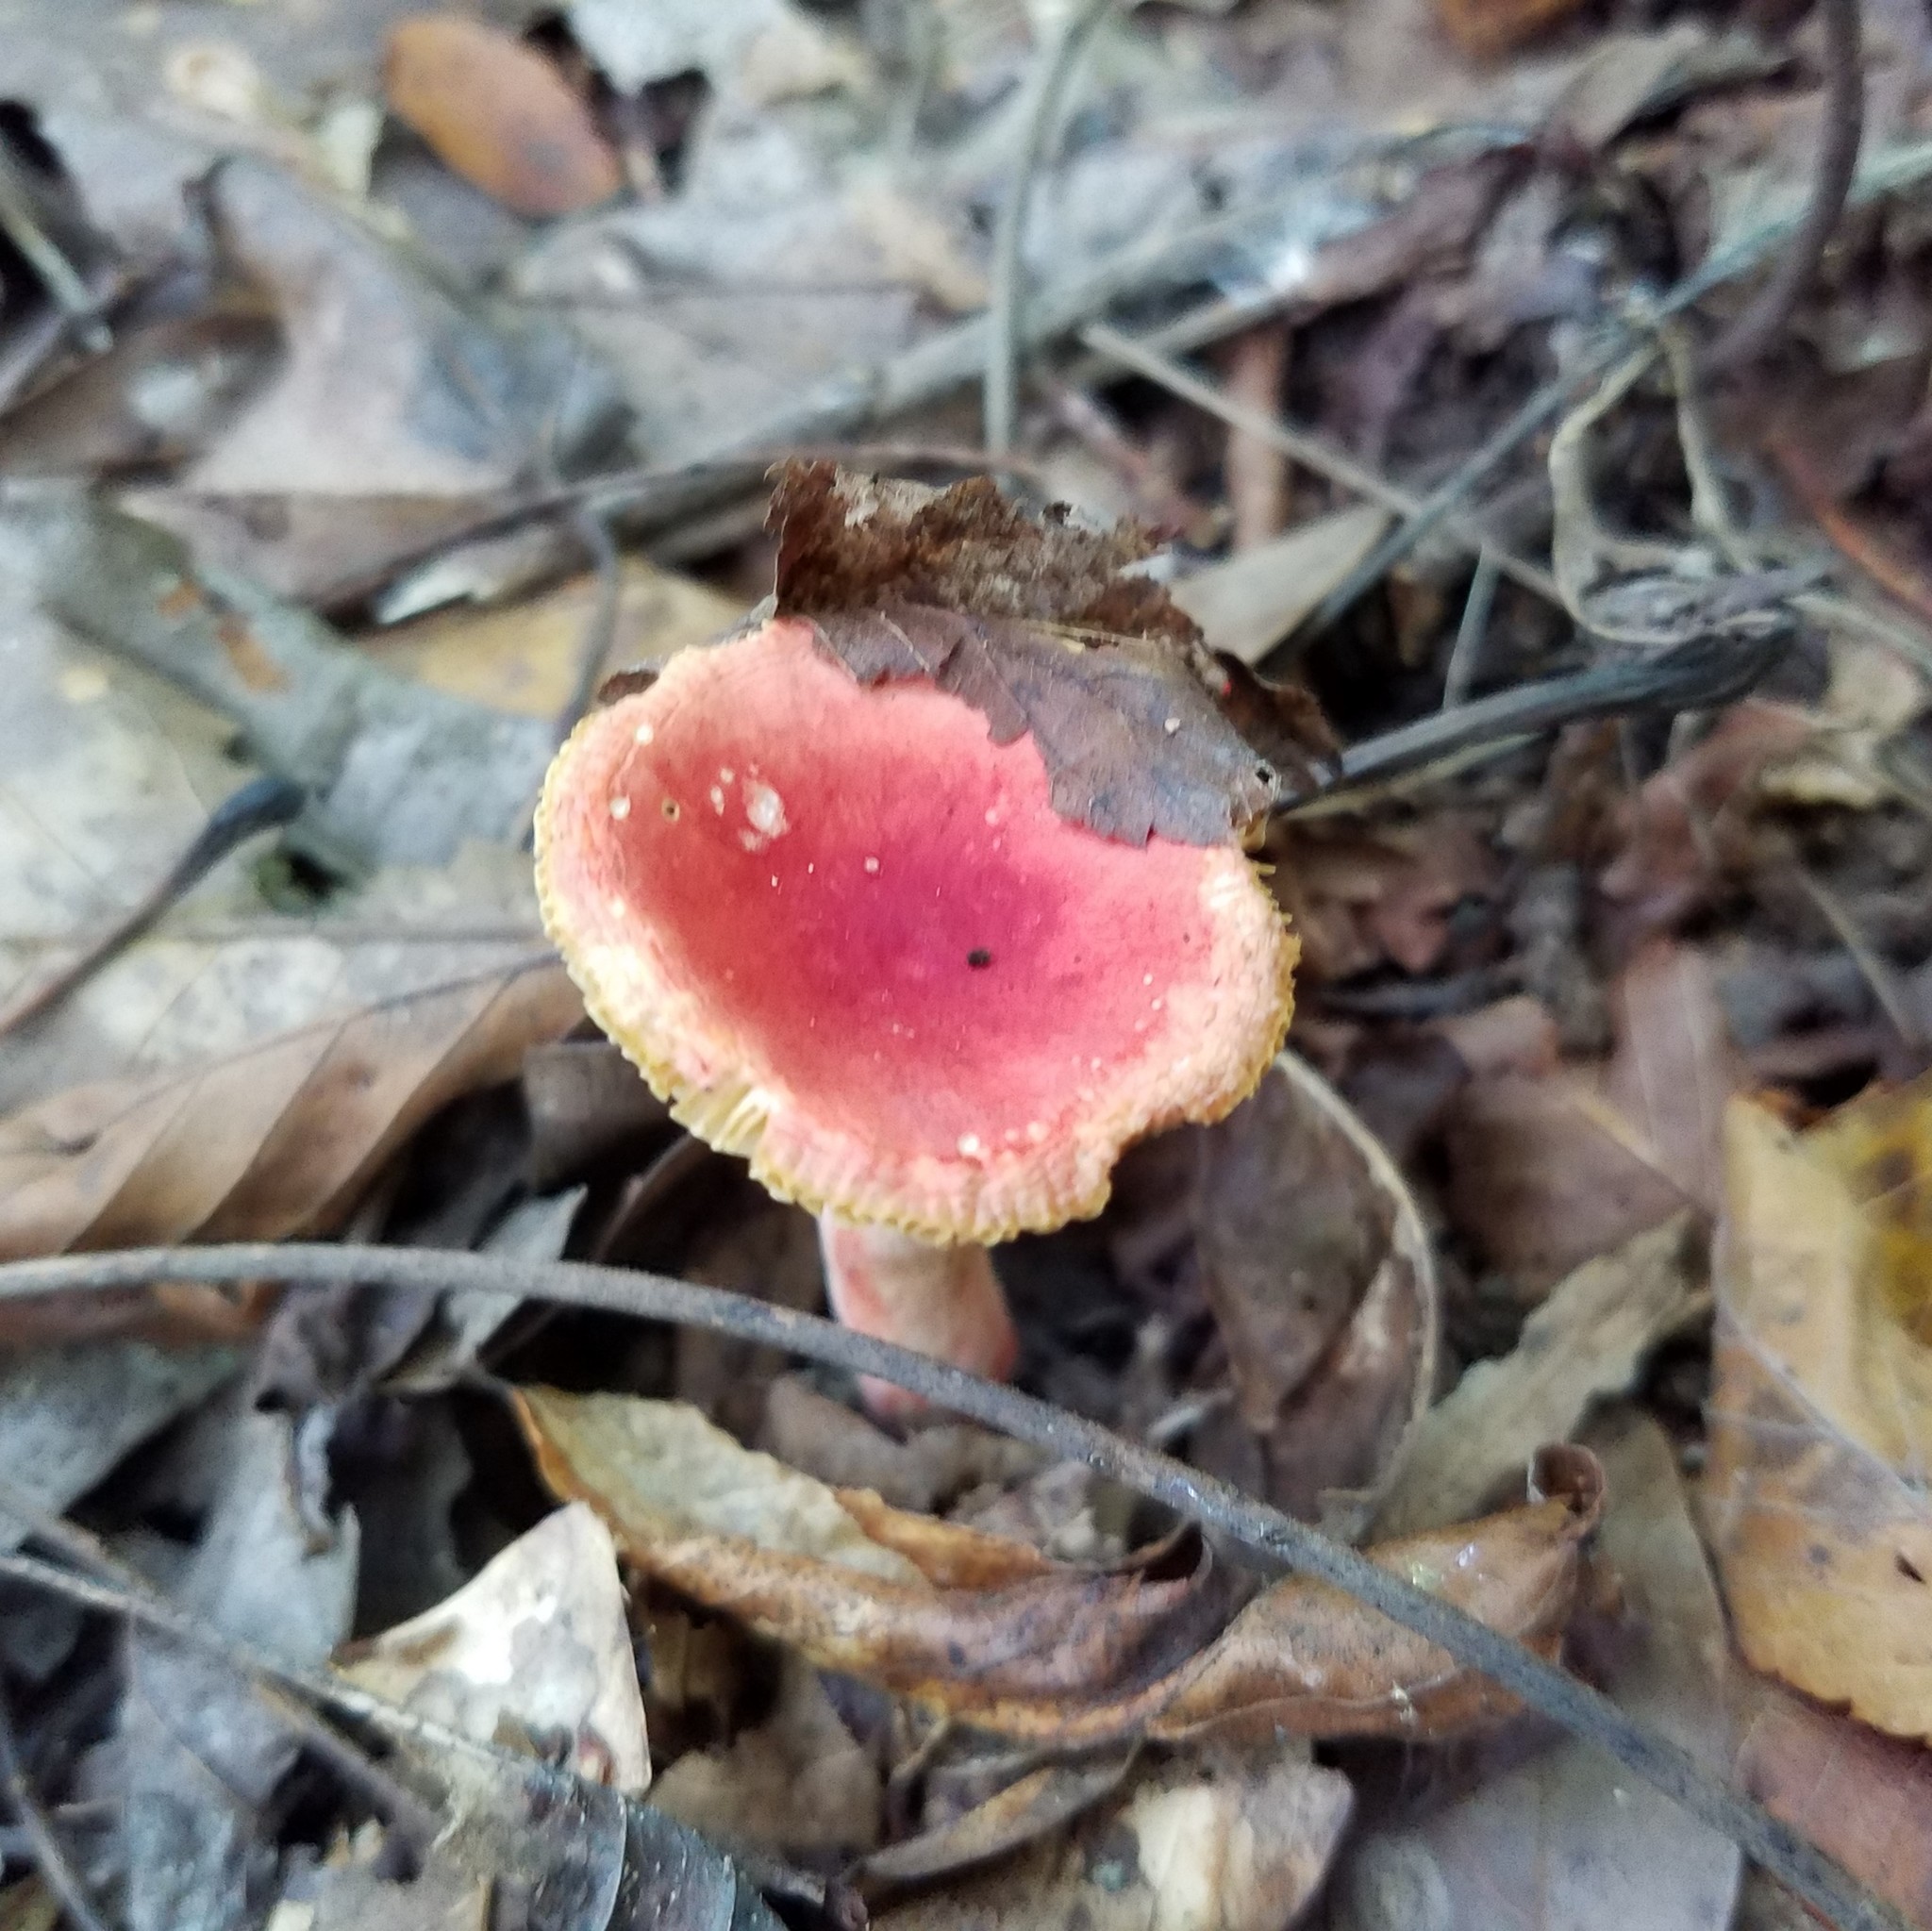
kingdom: Fungi
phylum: Basidiomycota
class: Agaricomycetes
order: Russulales
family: Russulaceae
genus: Russula
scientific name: Russula
